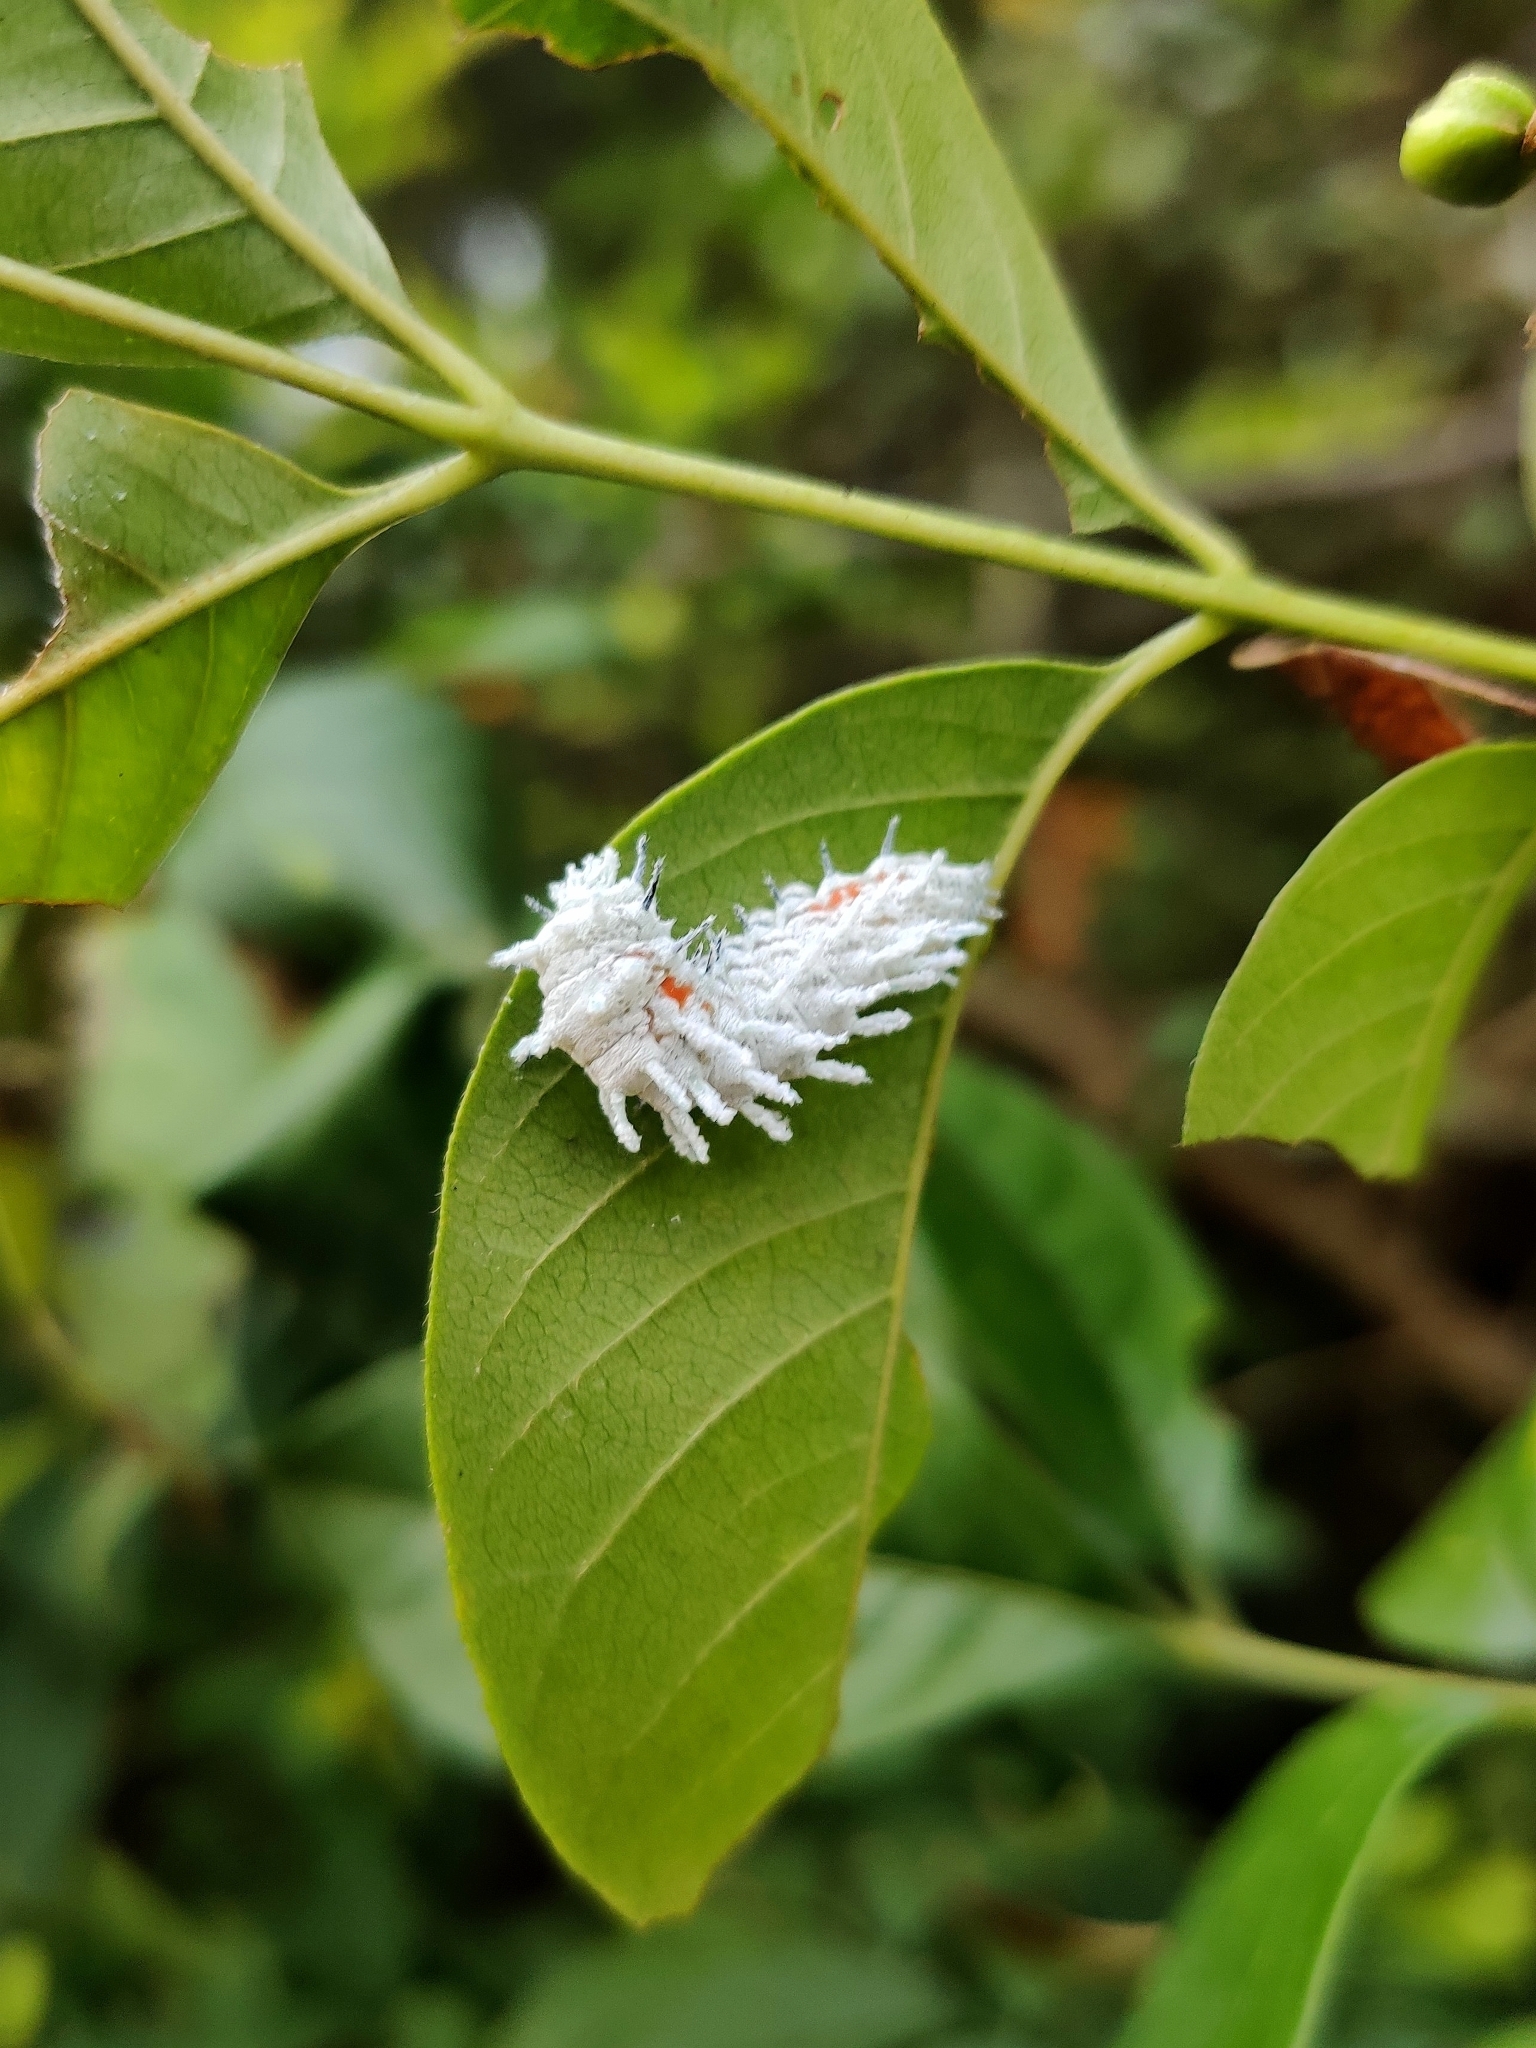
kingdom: Animalia
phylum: Arthropoda
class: Insecta
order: Lepidoptera
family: Saturniidae
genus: Attacus
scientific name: Attacus taprobanis
